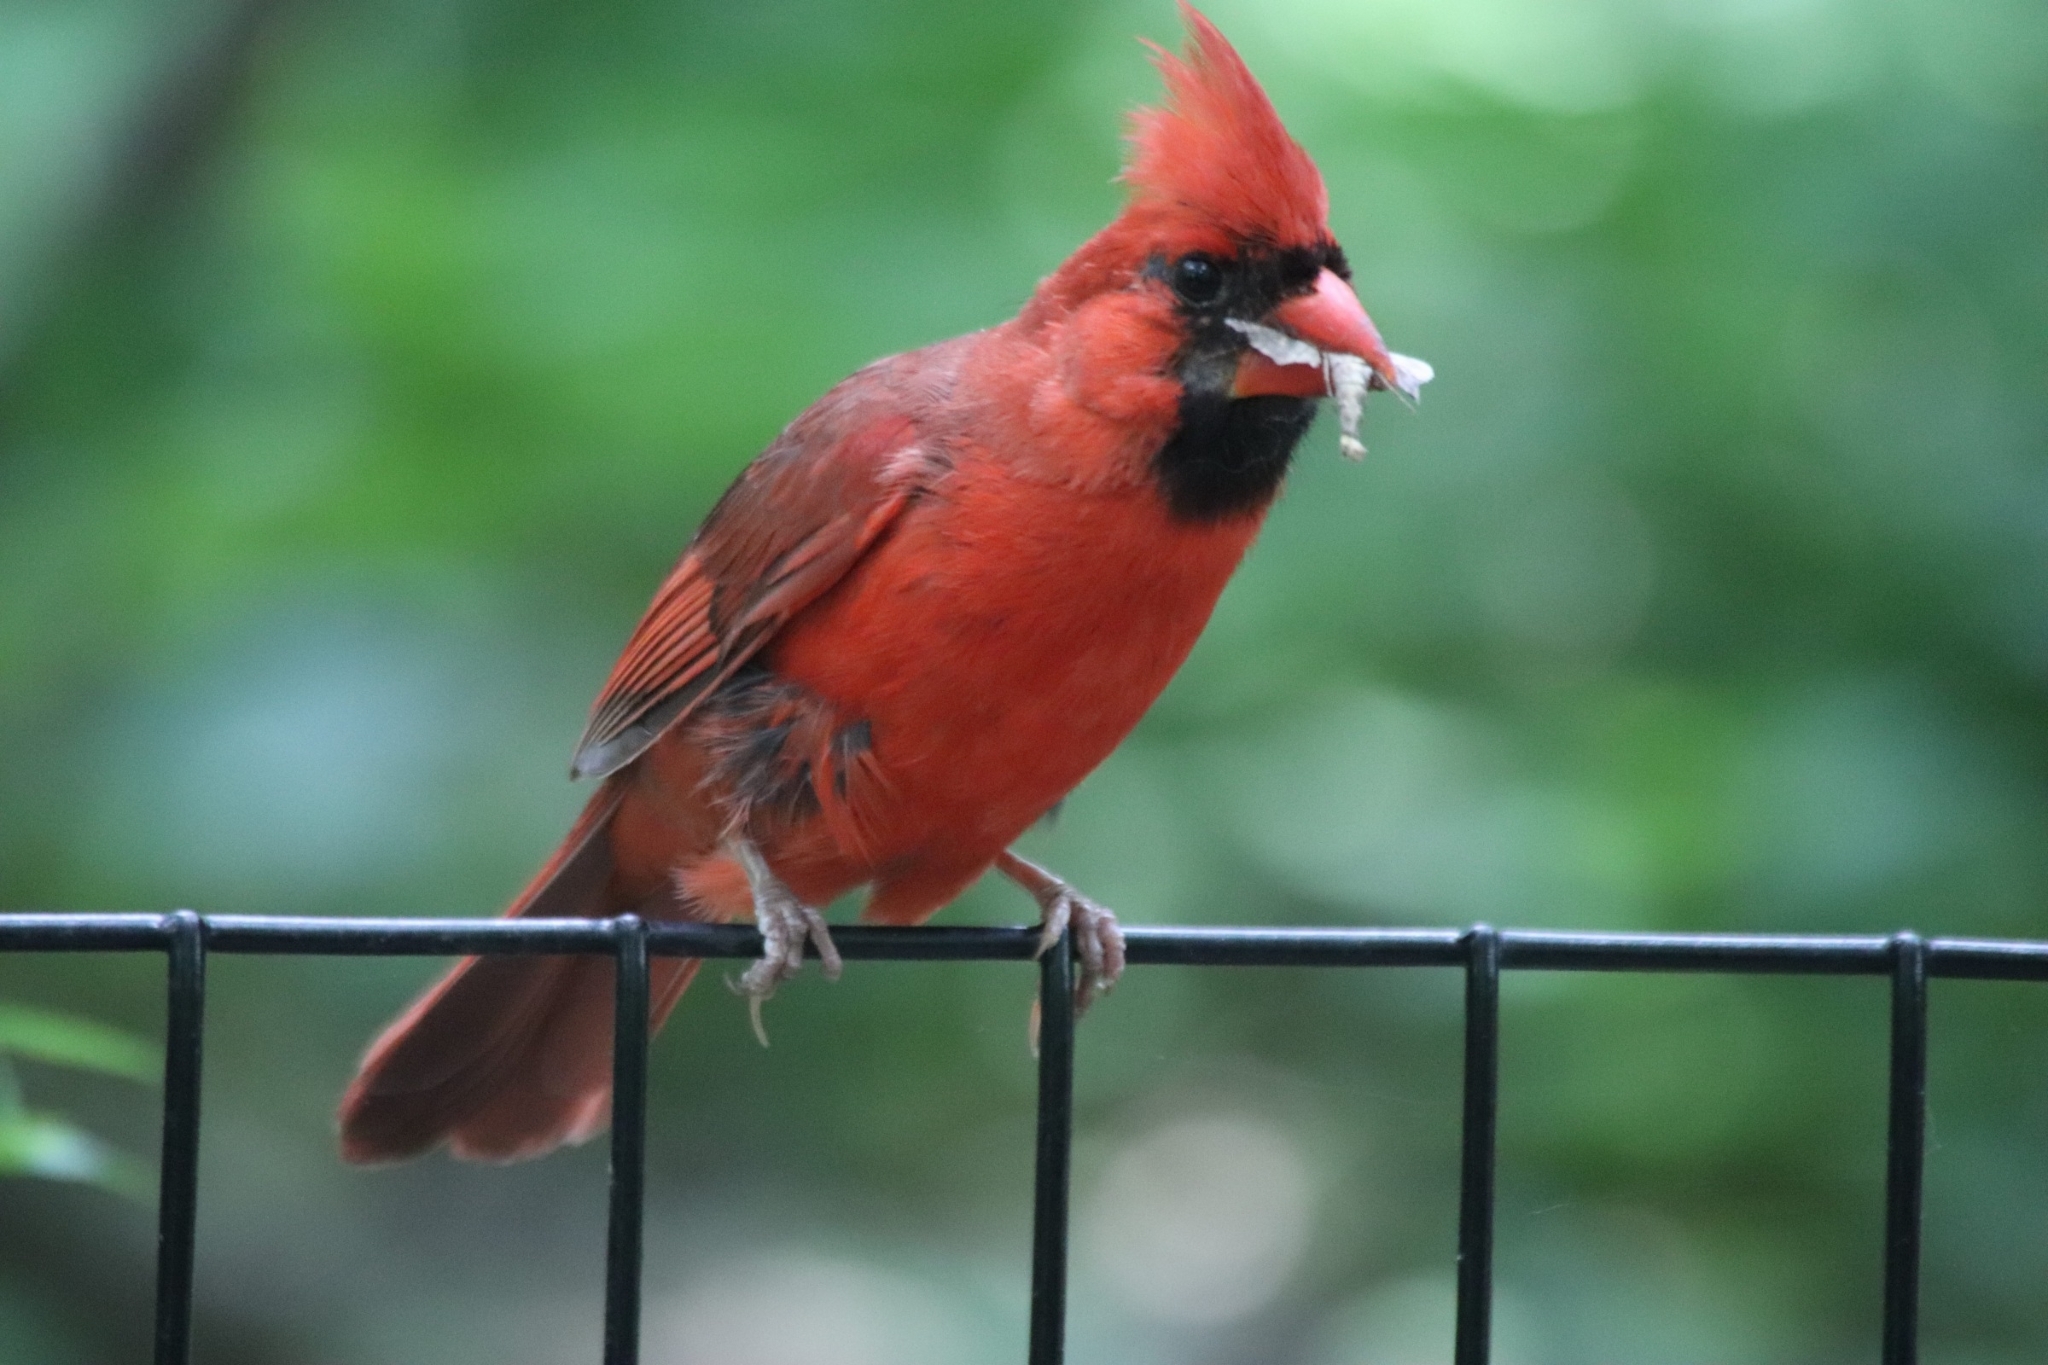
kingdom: Animalia
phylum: Chordata
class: Aves
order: Passeriformes
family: Cardinalidae
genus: Cardinalis
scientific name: Cardinalis cardinalis
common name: Northern cardinal
